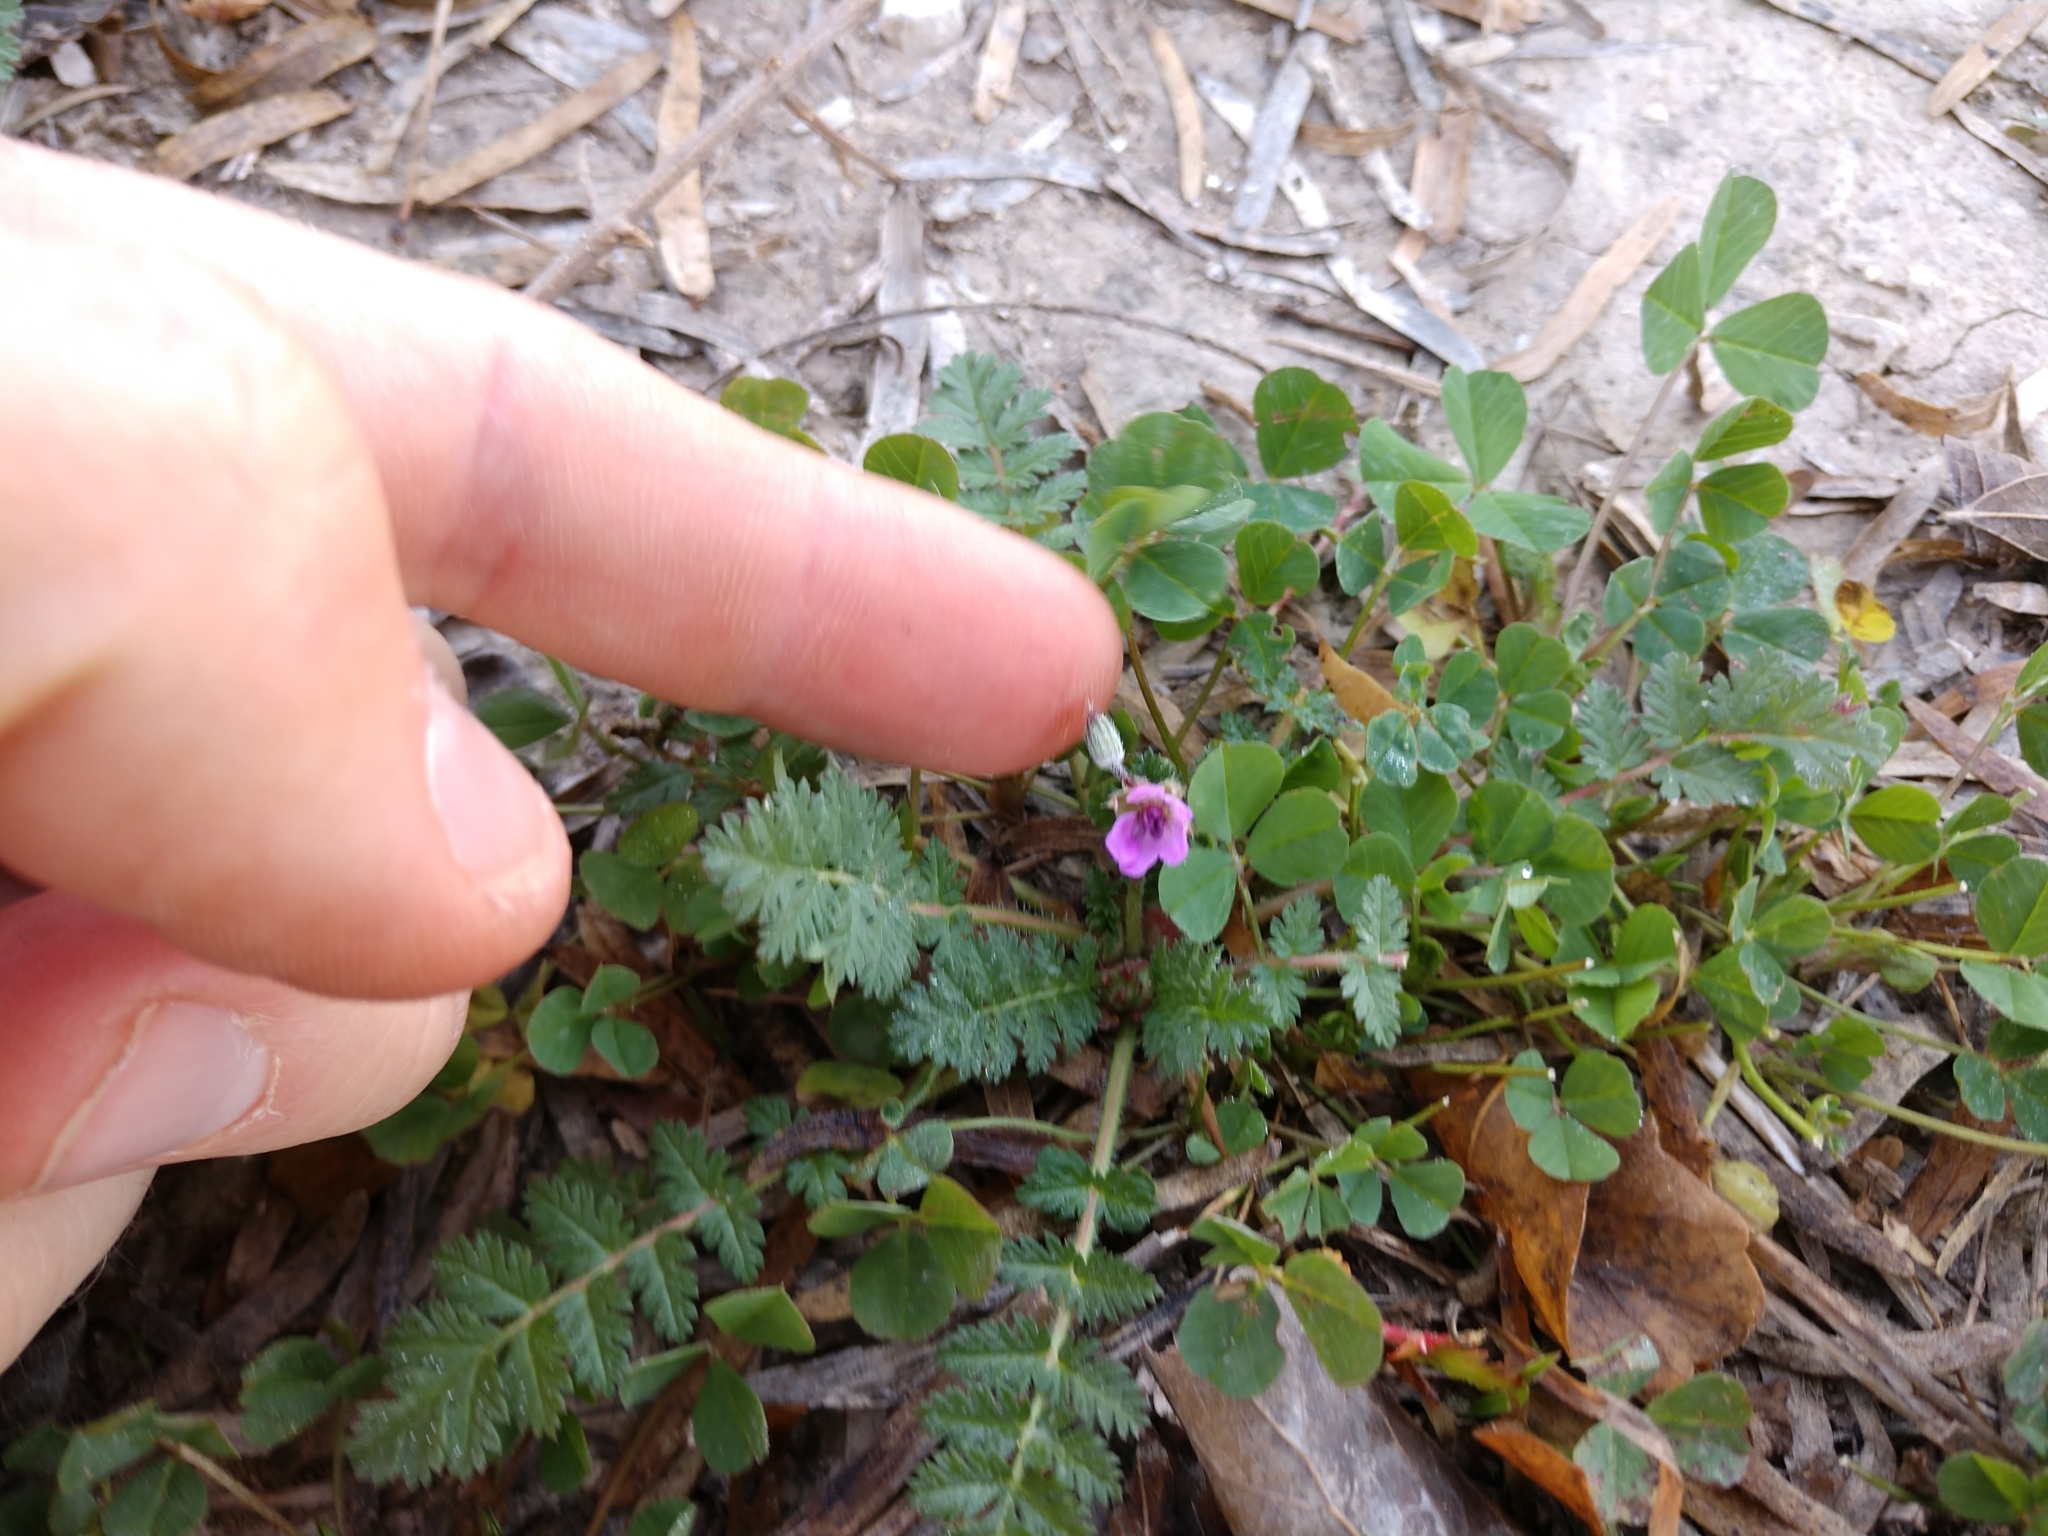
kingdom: Plantae
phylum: Tracheophyta
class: Magnoliopsida
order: Geraniales
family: Geraniaceae
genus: Erodium
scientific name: Erodium cicutarium
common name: Common stork's-bill
